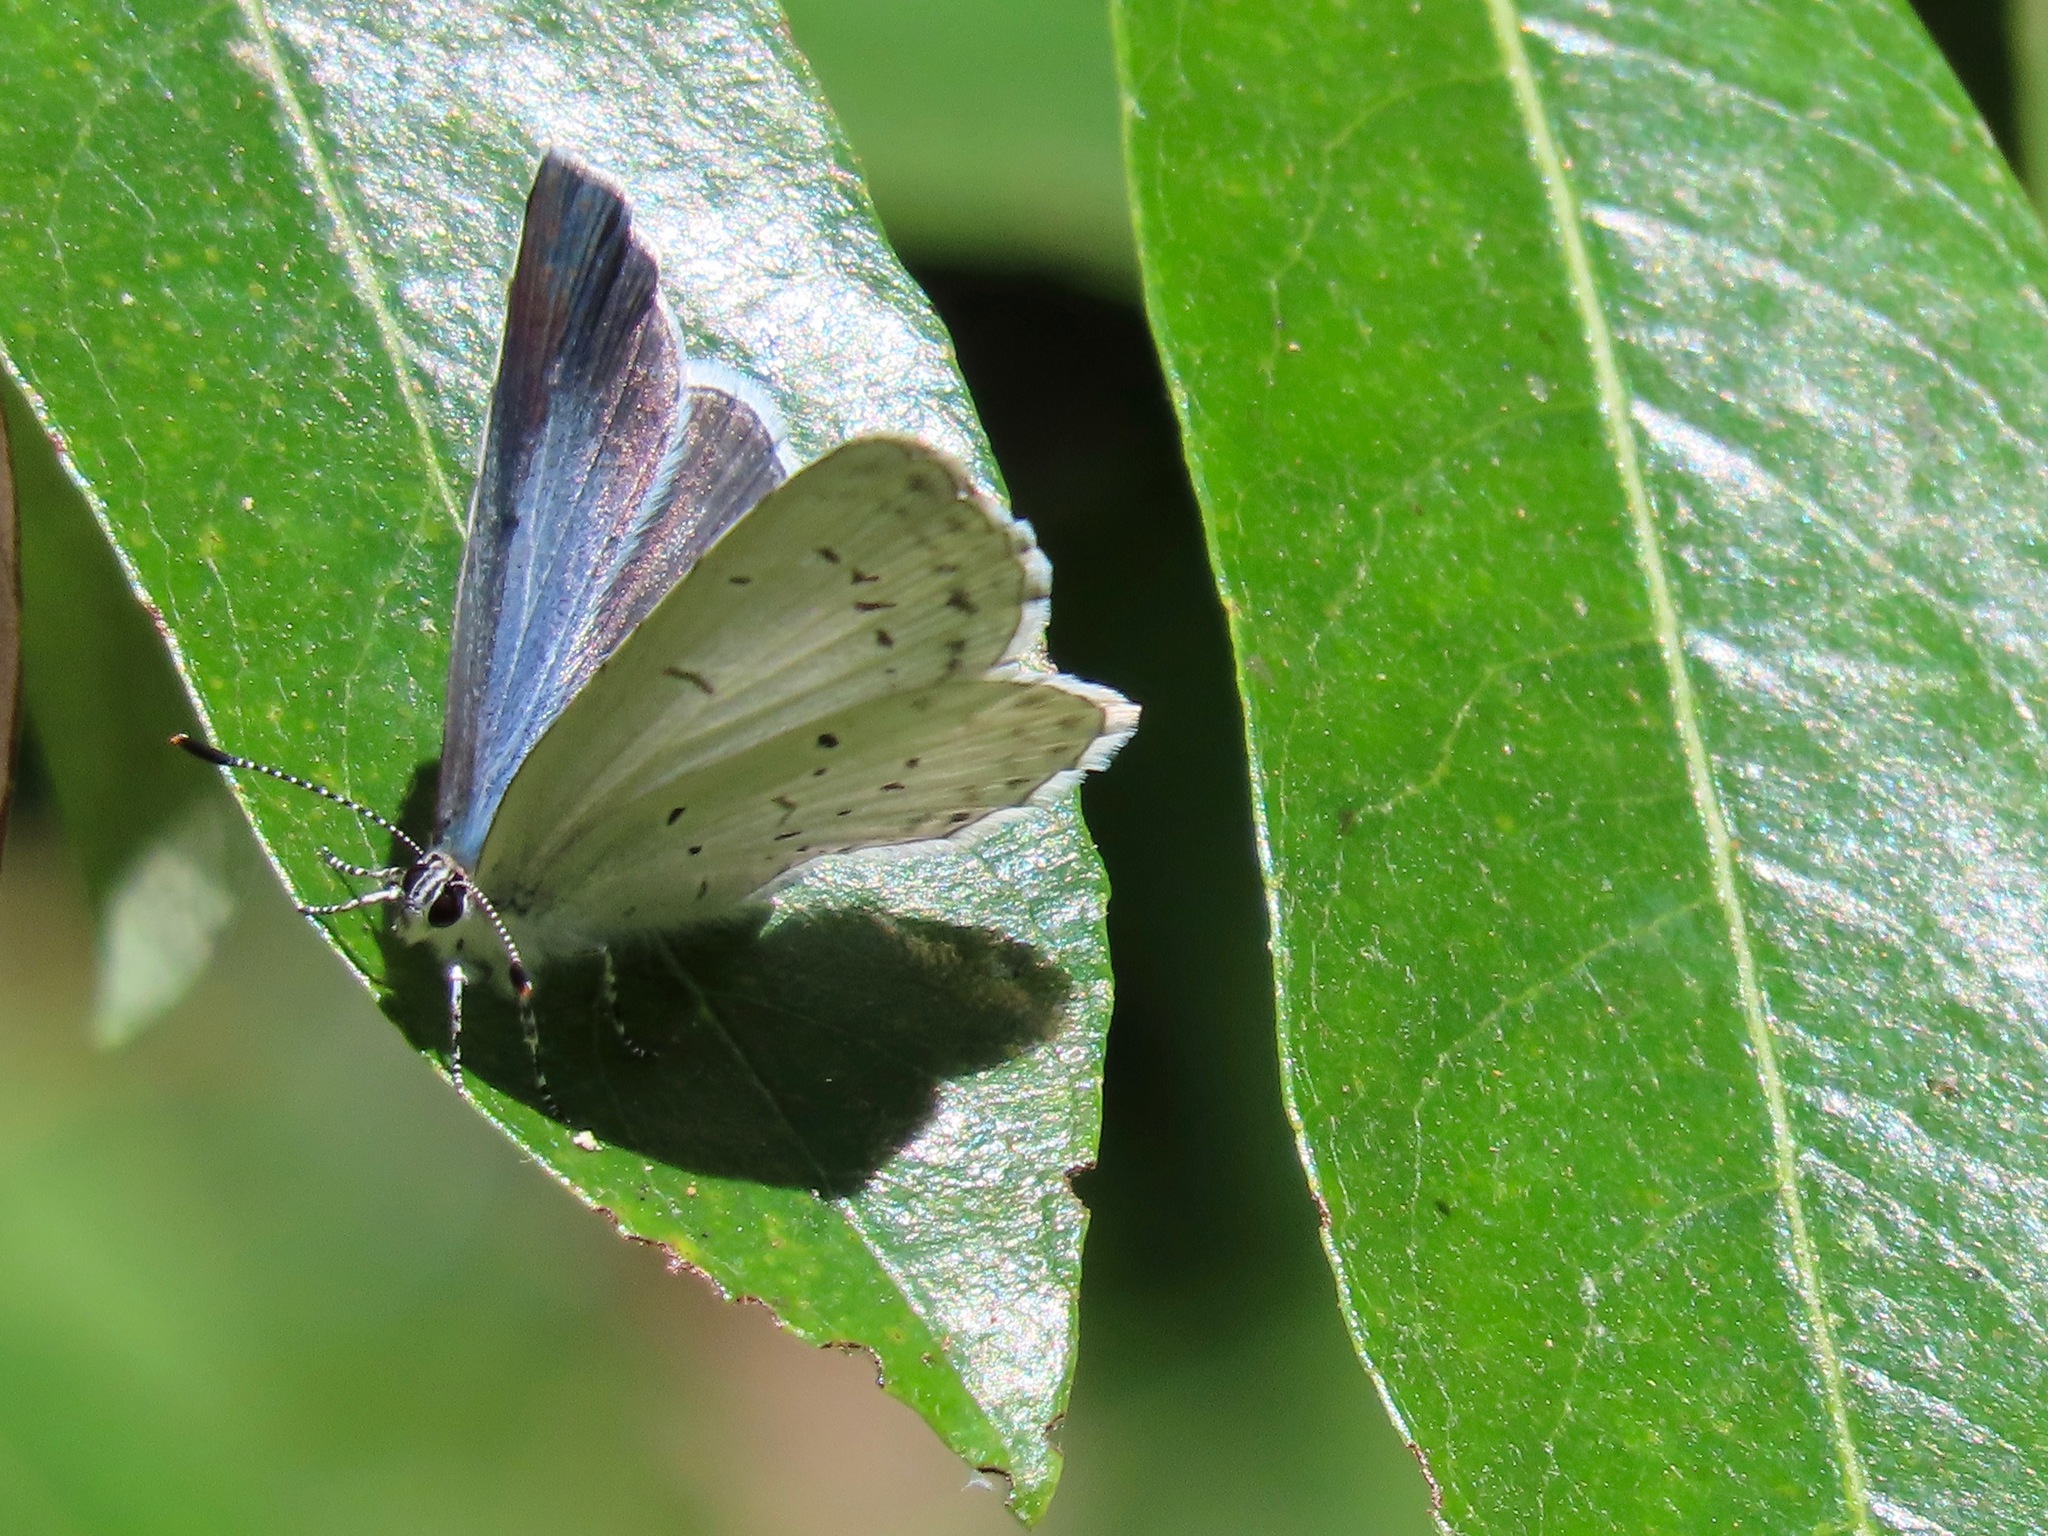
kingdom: Animalia
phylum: Arthropoda
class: Insecta
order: Lepidoptera
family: Lycaenidae
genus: Celastrina
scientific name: Celastrina ladon
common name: Spring azure
